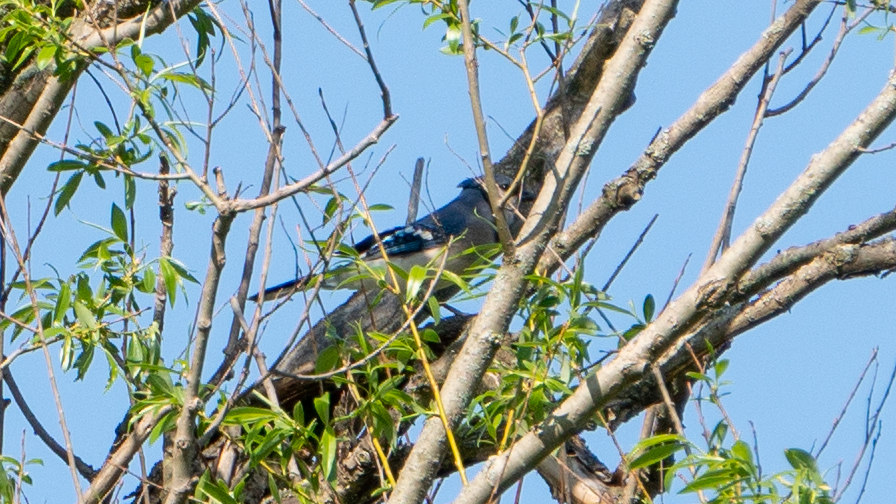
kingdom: Animalia
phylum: Chordata
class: Aves
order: Passeriformes
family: Corvidae
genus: Cyanocitta
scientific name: Cyanocitta cristata
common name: Blue jay
